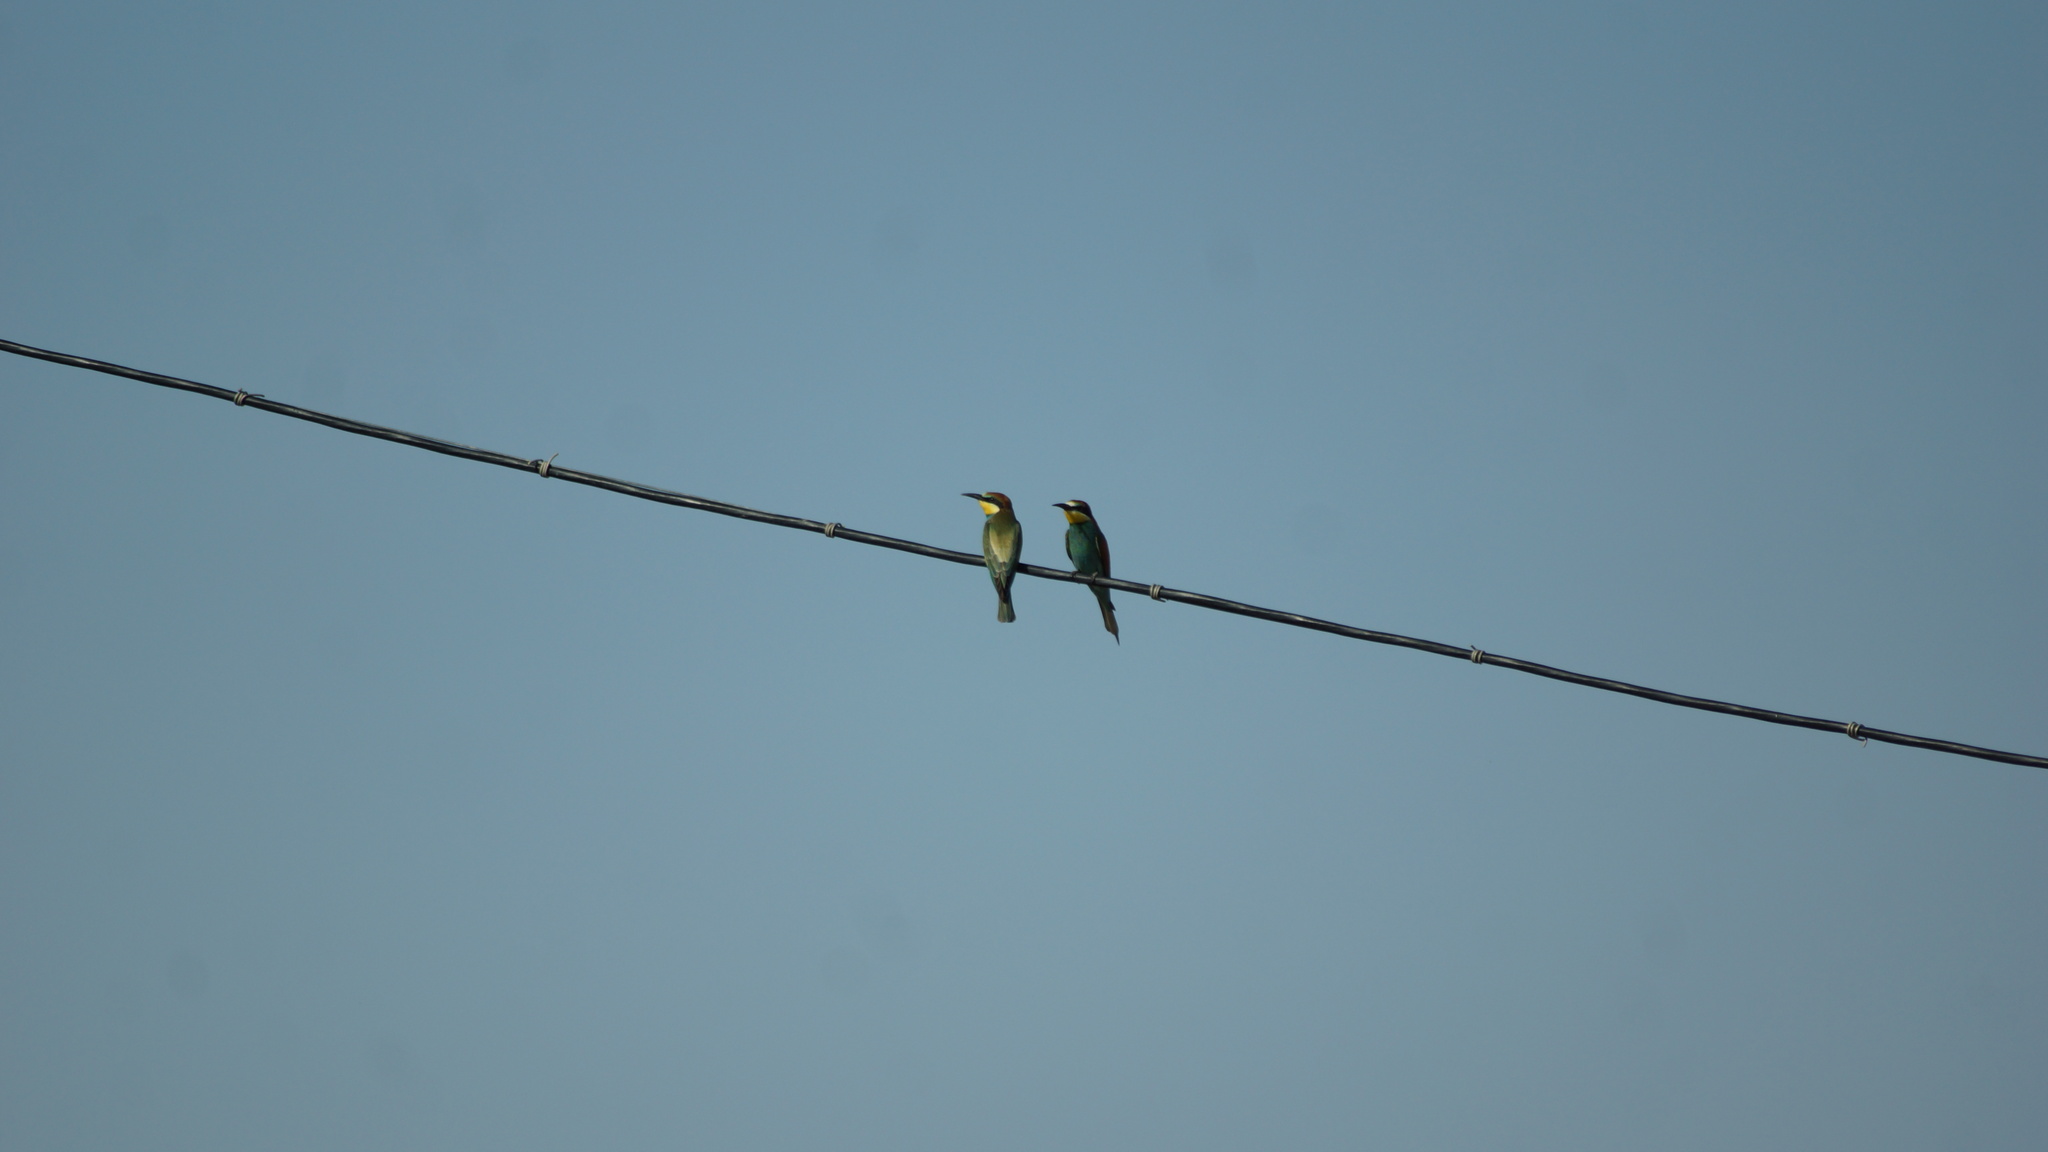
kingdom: Animalia
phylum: Chordata
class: Aves
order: Coraciiformes
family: Meropidae
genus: Merops
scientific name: Merops apiaster
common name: European bee-eater
